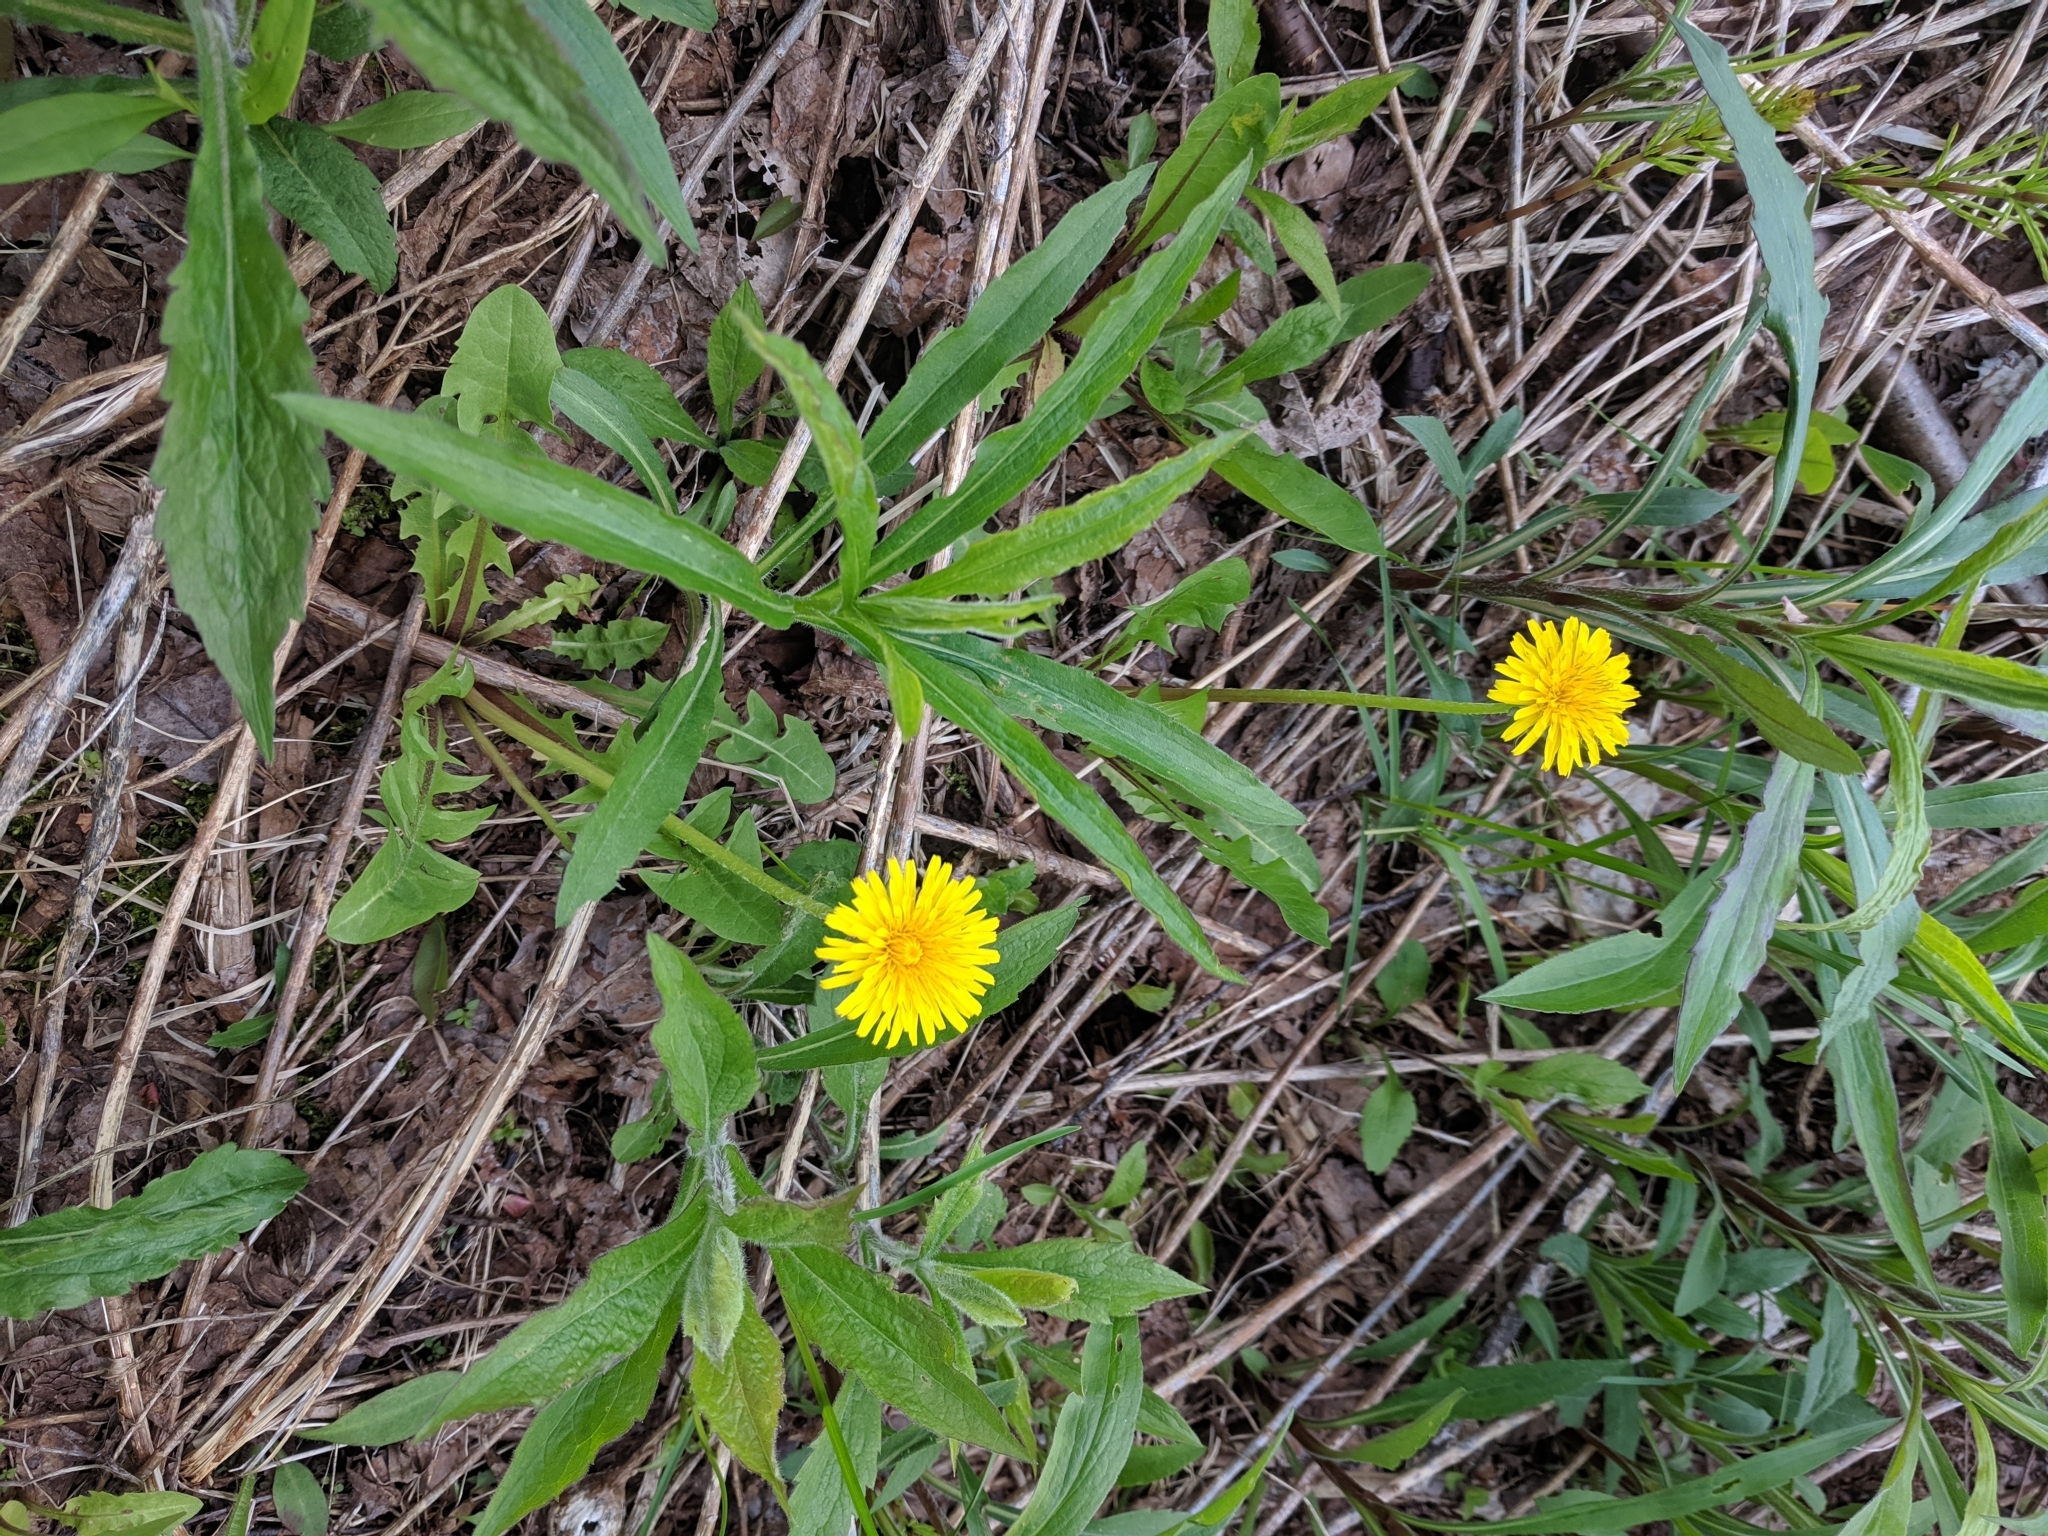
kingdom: Plantae
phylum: Tracheophyta
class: Magnoliopsida
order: Asterales
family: Asteraceae
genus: Taraxacum
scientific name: Taraxacum officinale
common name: Common dandelion
